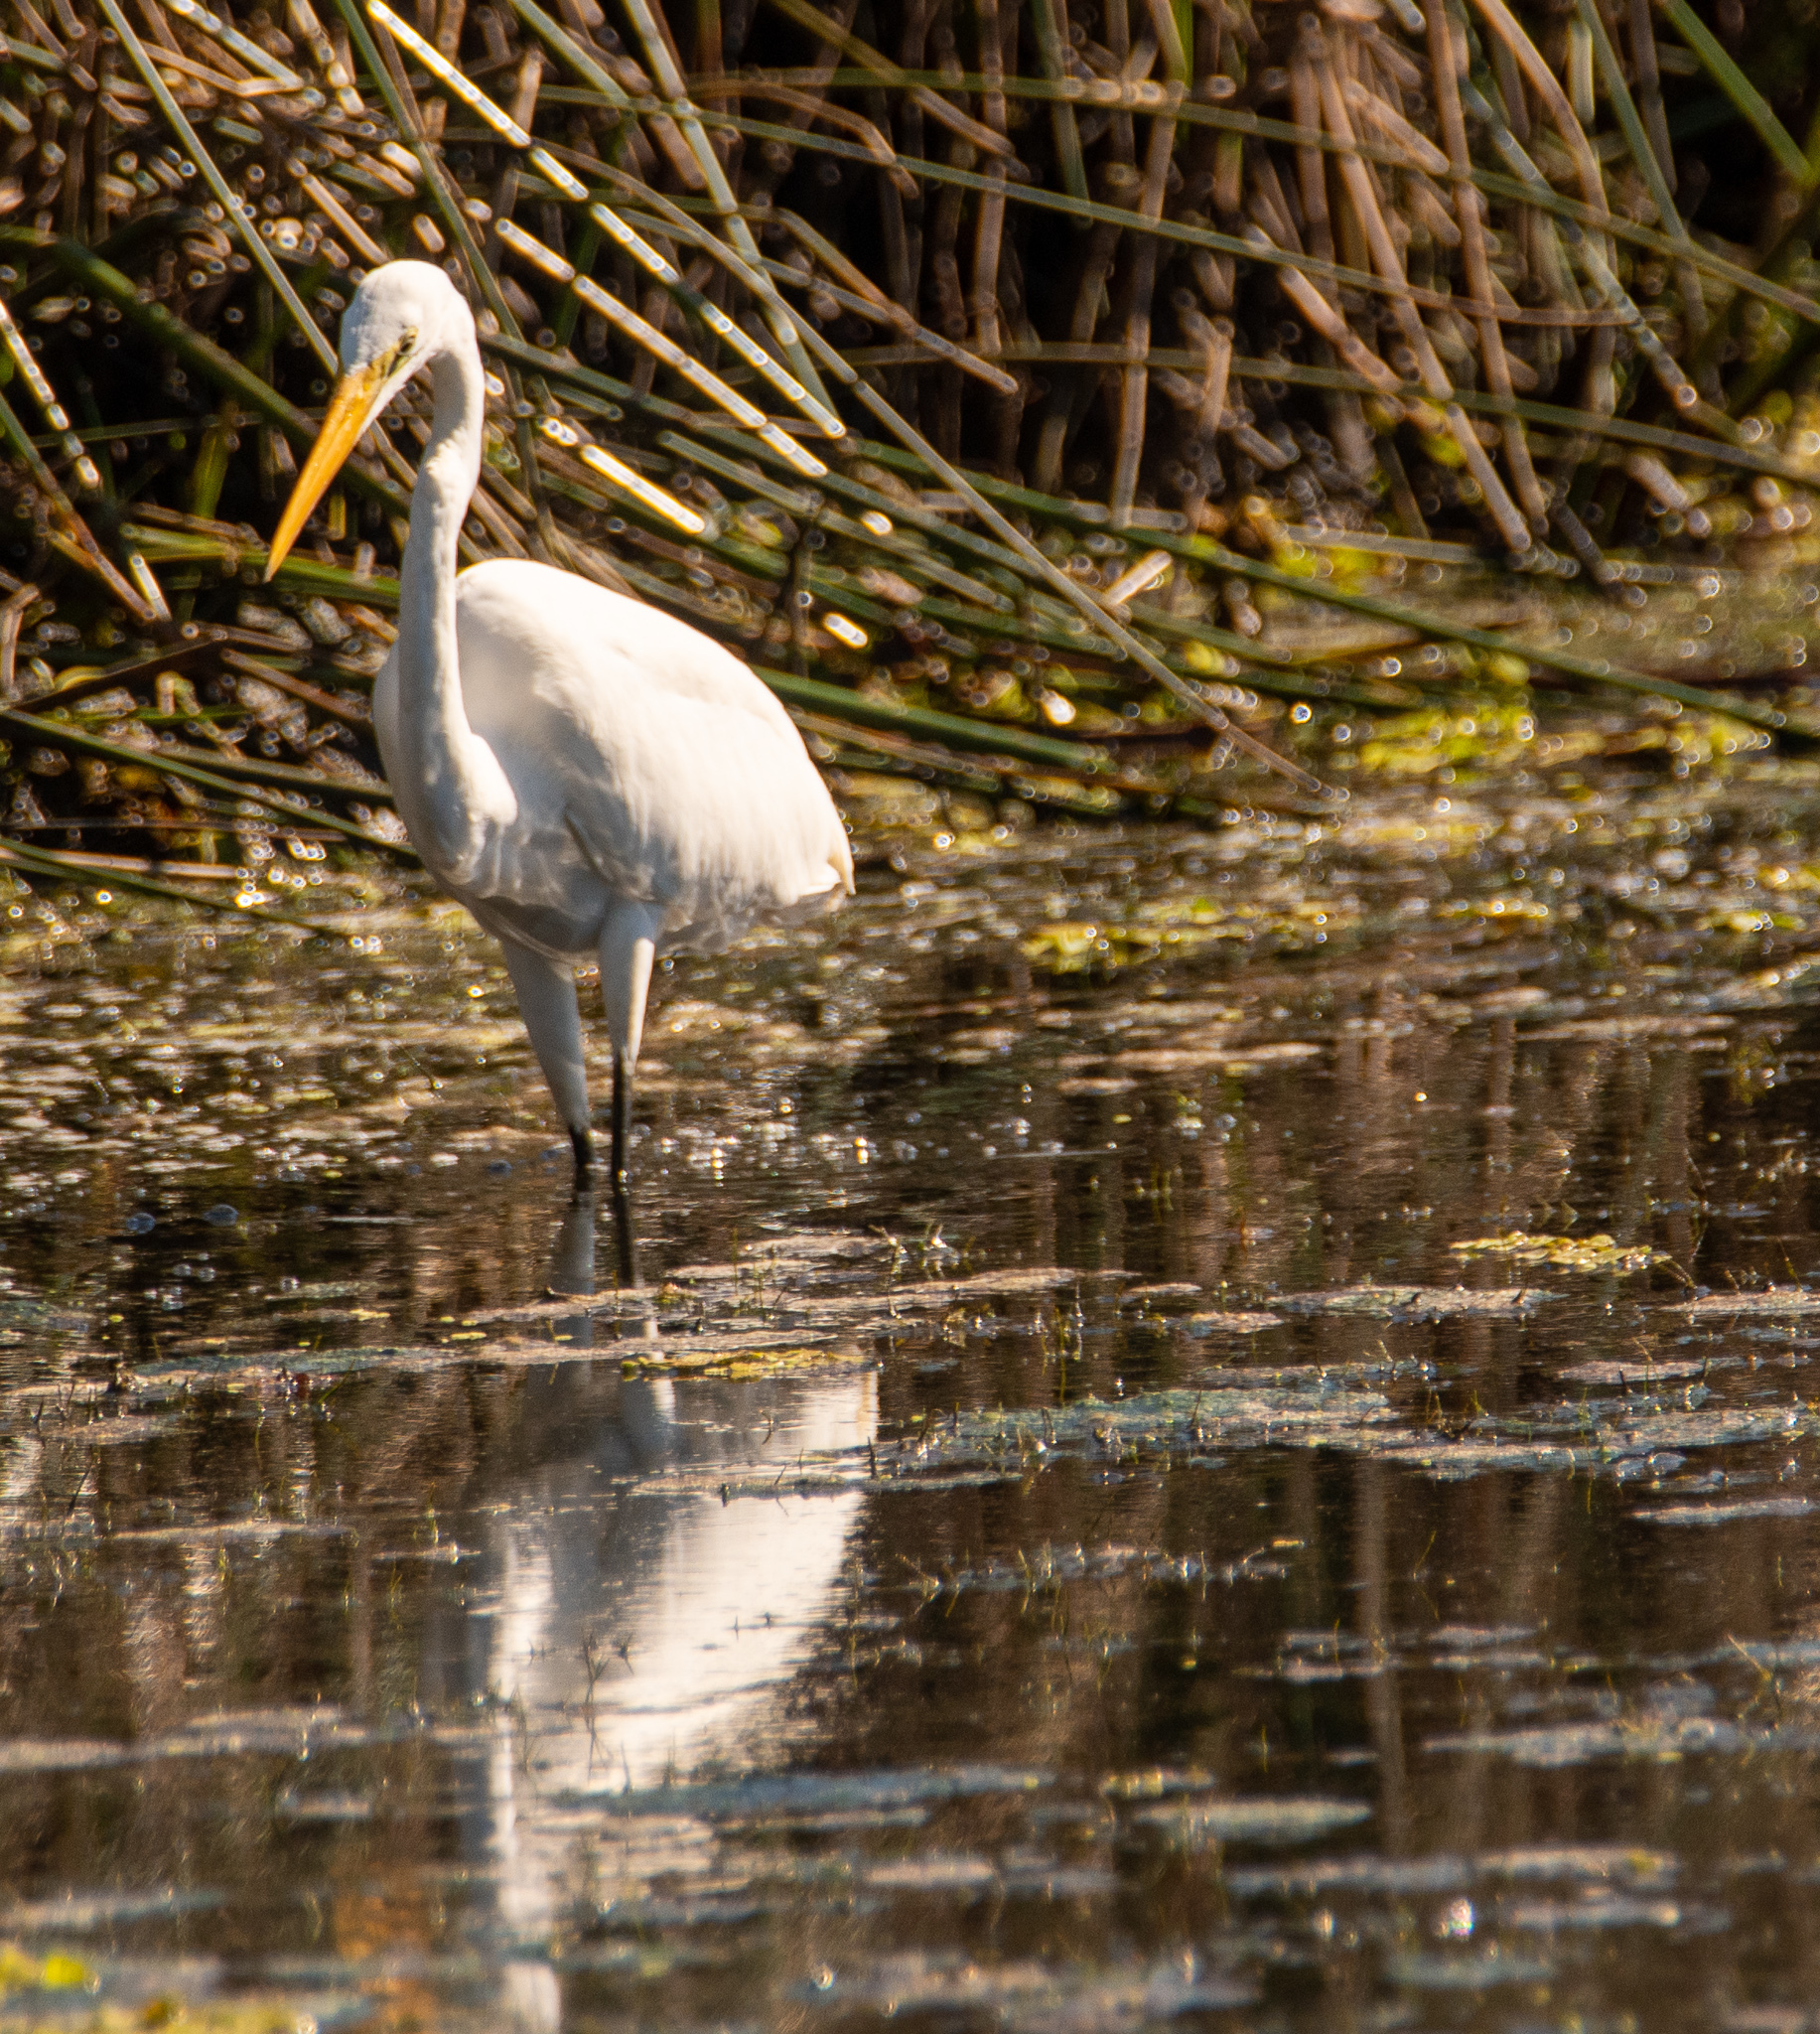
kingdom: Animalia
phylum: Chordata
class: Aves
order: Pelecaniformes
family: Ardeidae
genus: Ardea
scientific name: Ardea modesta
